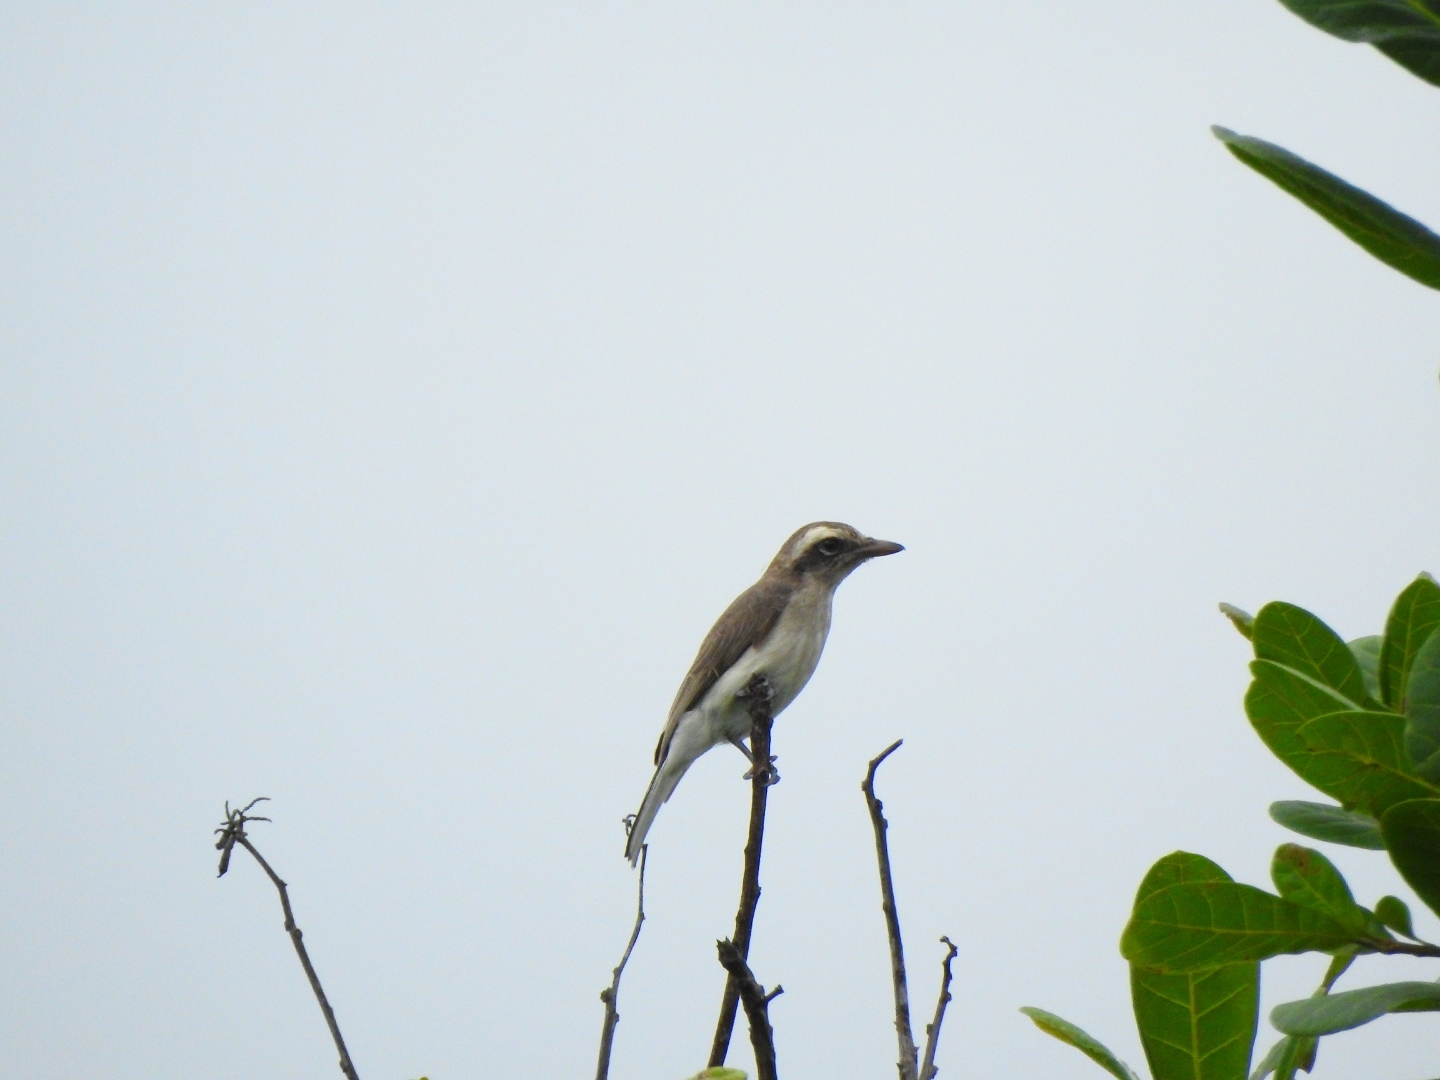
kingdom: Animalia
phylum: Chordata
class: Aves
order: Passeriformes
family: Tephrodornithidae
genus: Tephrodornis
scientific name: Tephrodornis pondicerianus
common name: Common woodshrike
